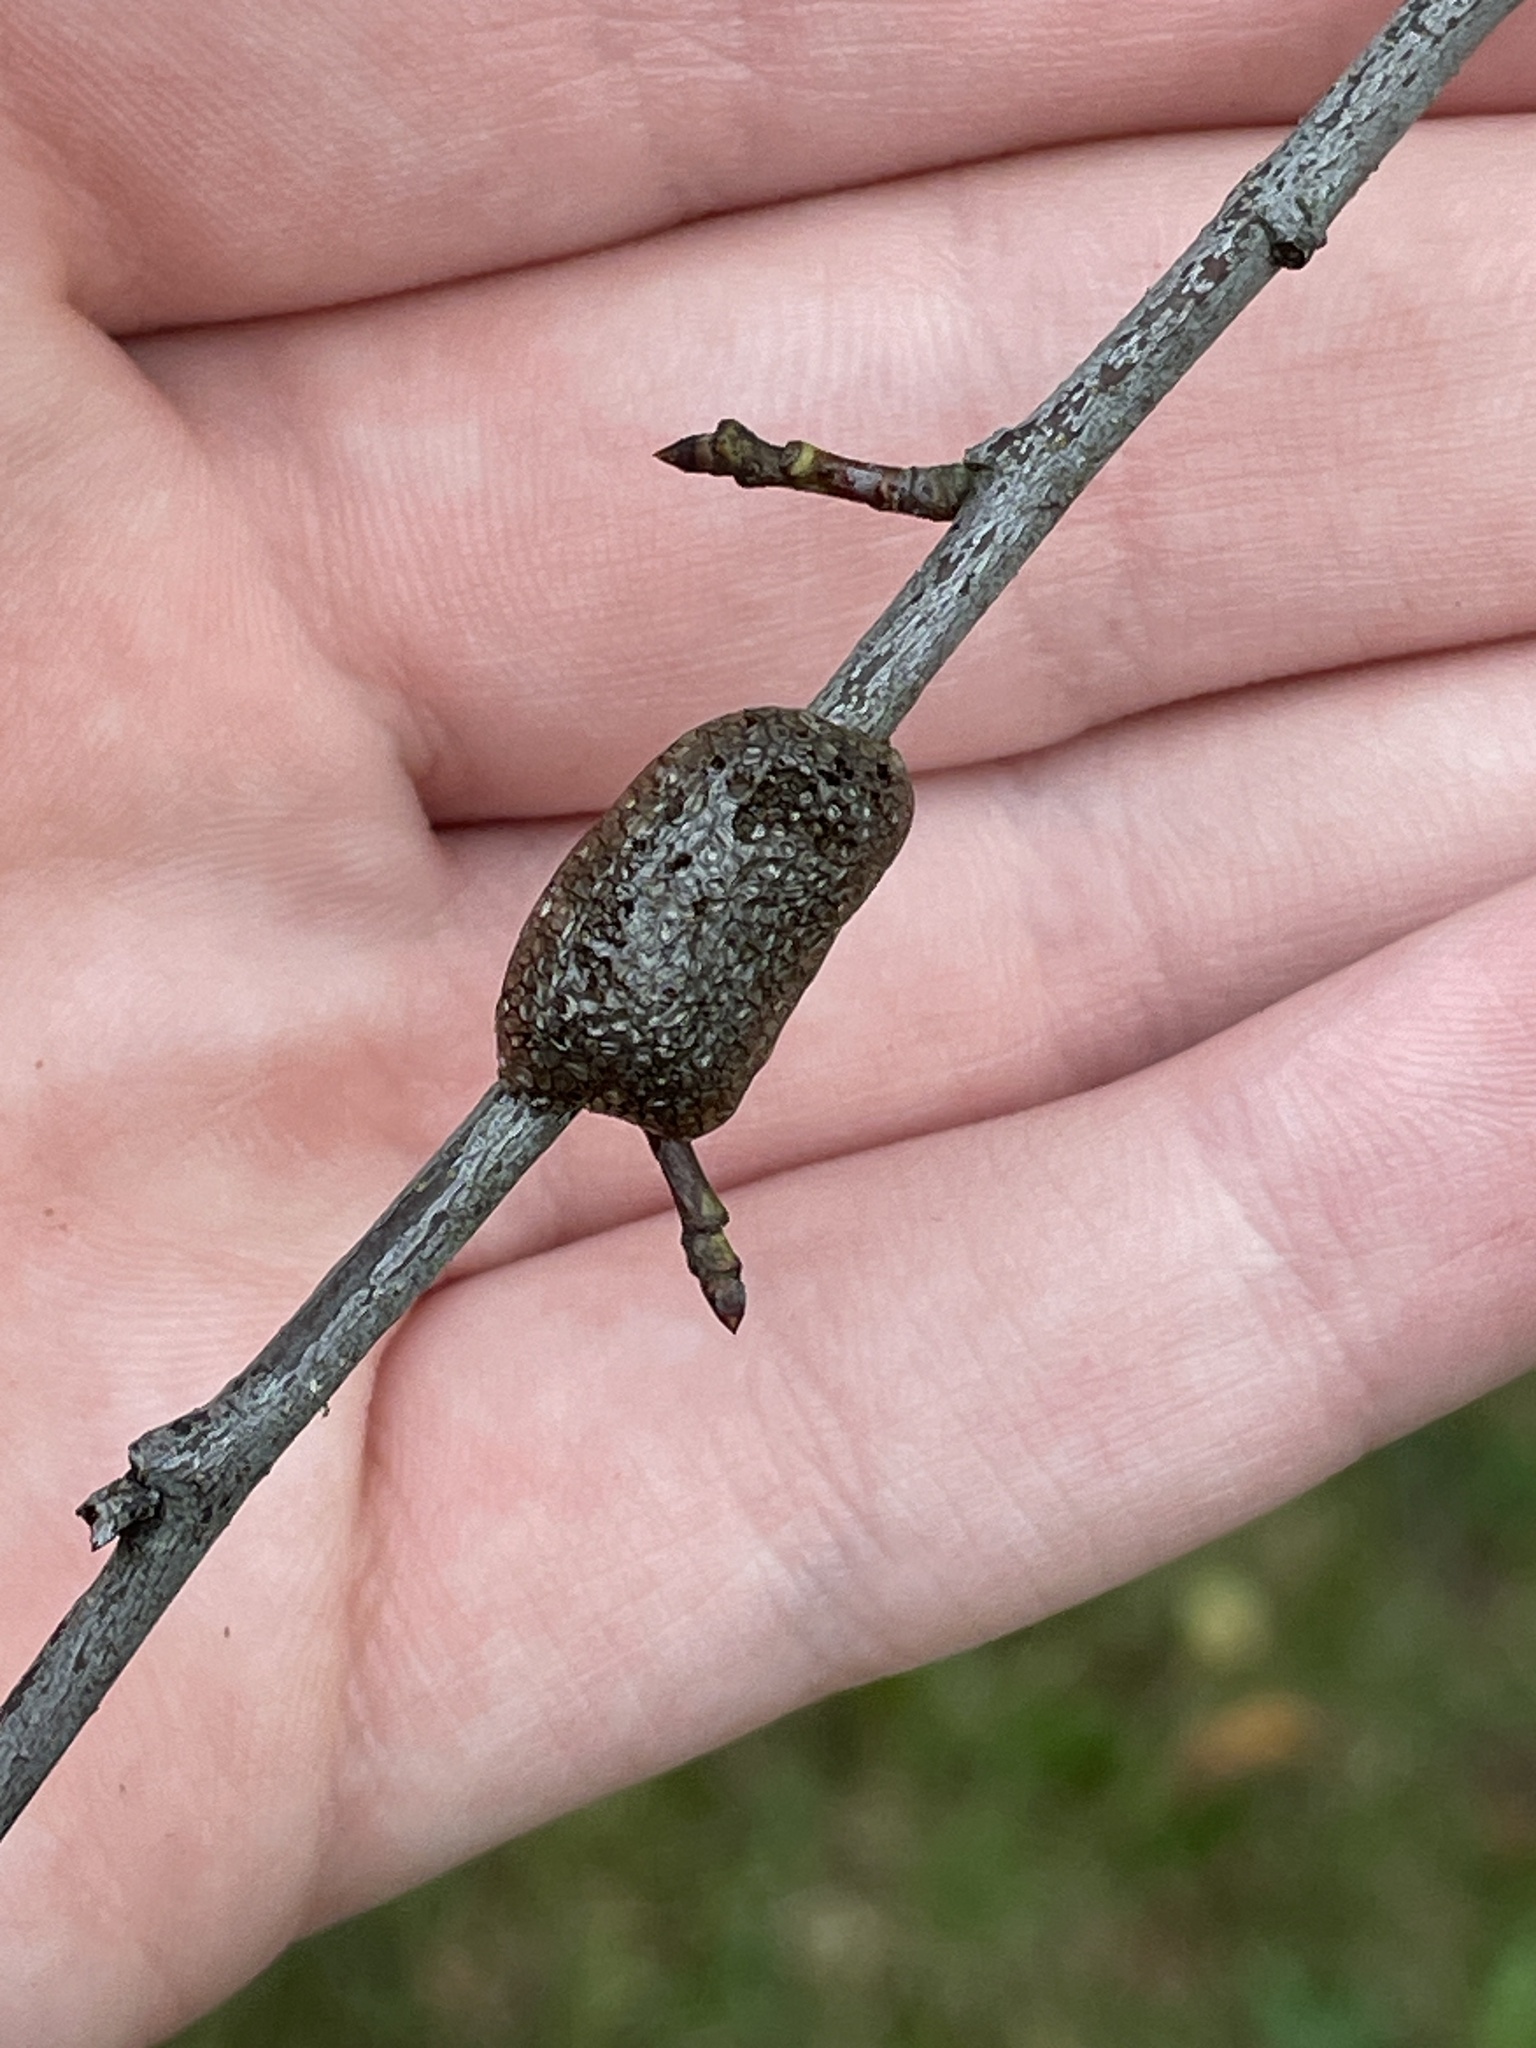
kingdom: Animalia
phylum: Arthropoda
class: Insecta
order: Lepidoptera
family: Lasiocampidae
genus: Malacosoma
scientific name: Malacosoma americana
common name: Eastern tent caterpillar moth
